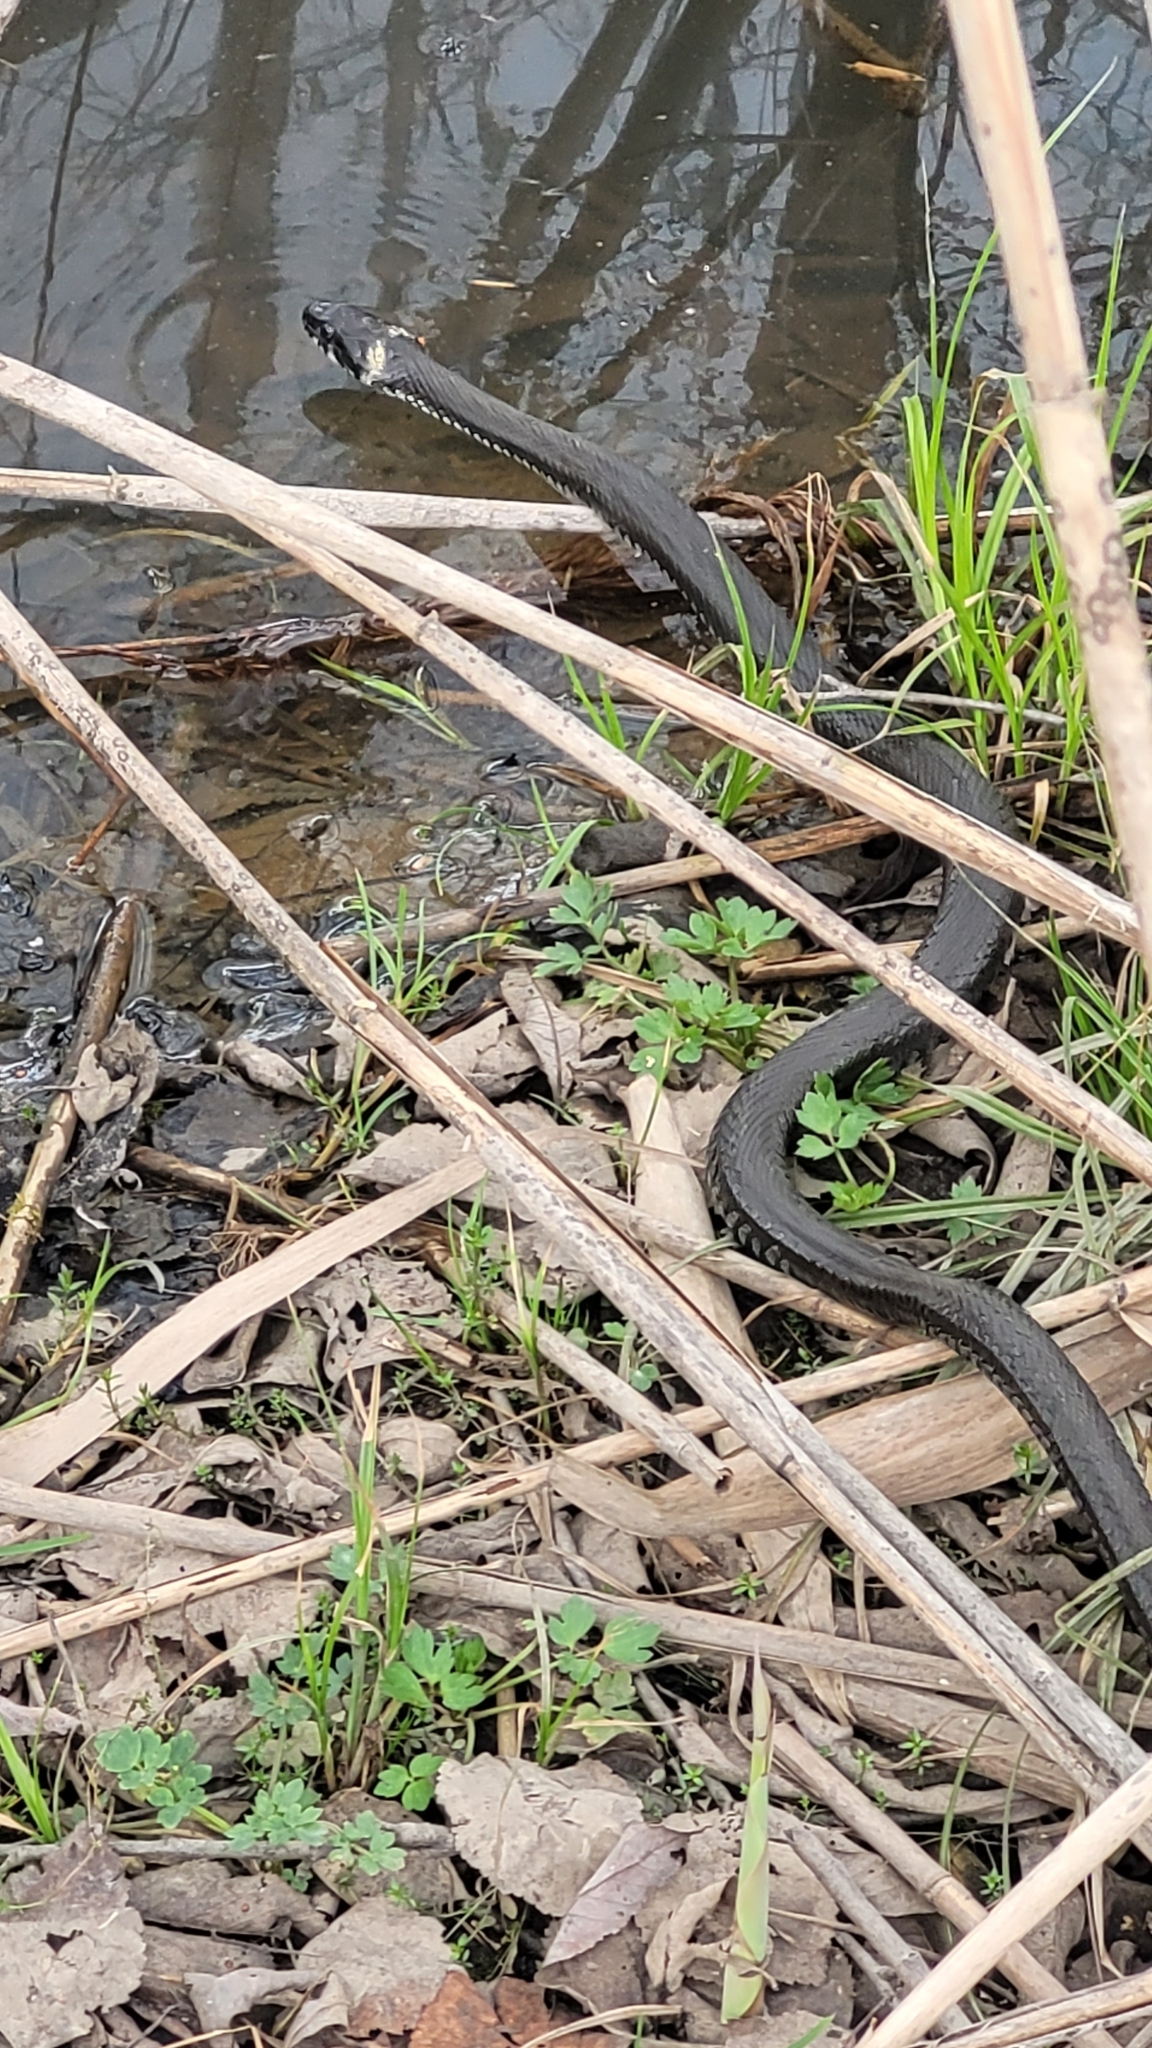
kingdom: Animalia
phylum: Chordata
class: Squamata
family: Colubridae
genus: Natrix
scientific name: Natrix natrix
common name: Grass snake
